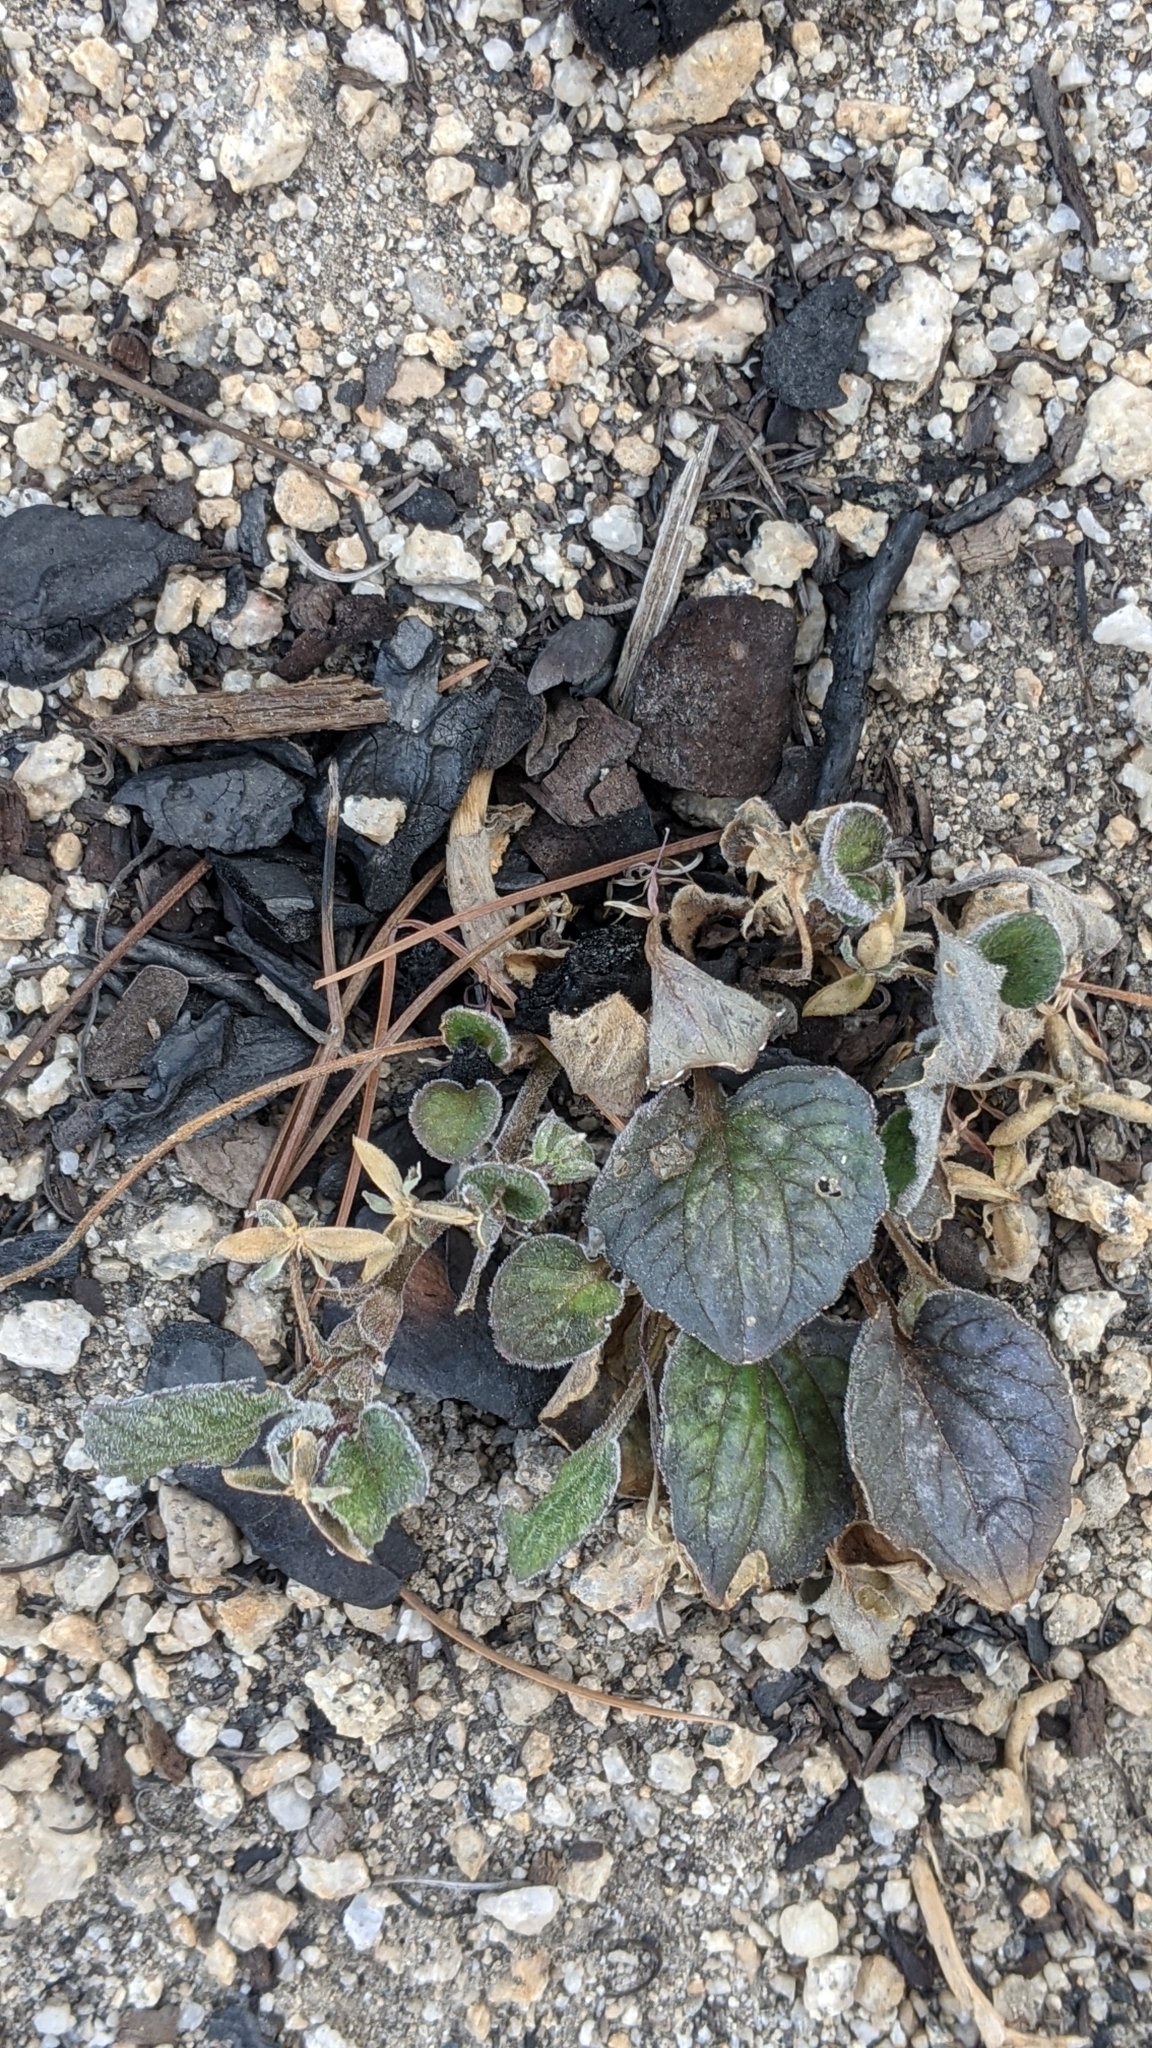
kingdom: Plantae
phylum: Tracheophyta
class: Magnoliopsida
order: Malpighiales
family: Violaceae
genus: Viola
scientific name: Viola purpurea
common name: Pine violet
